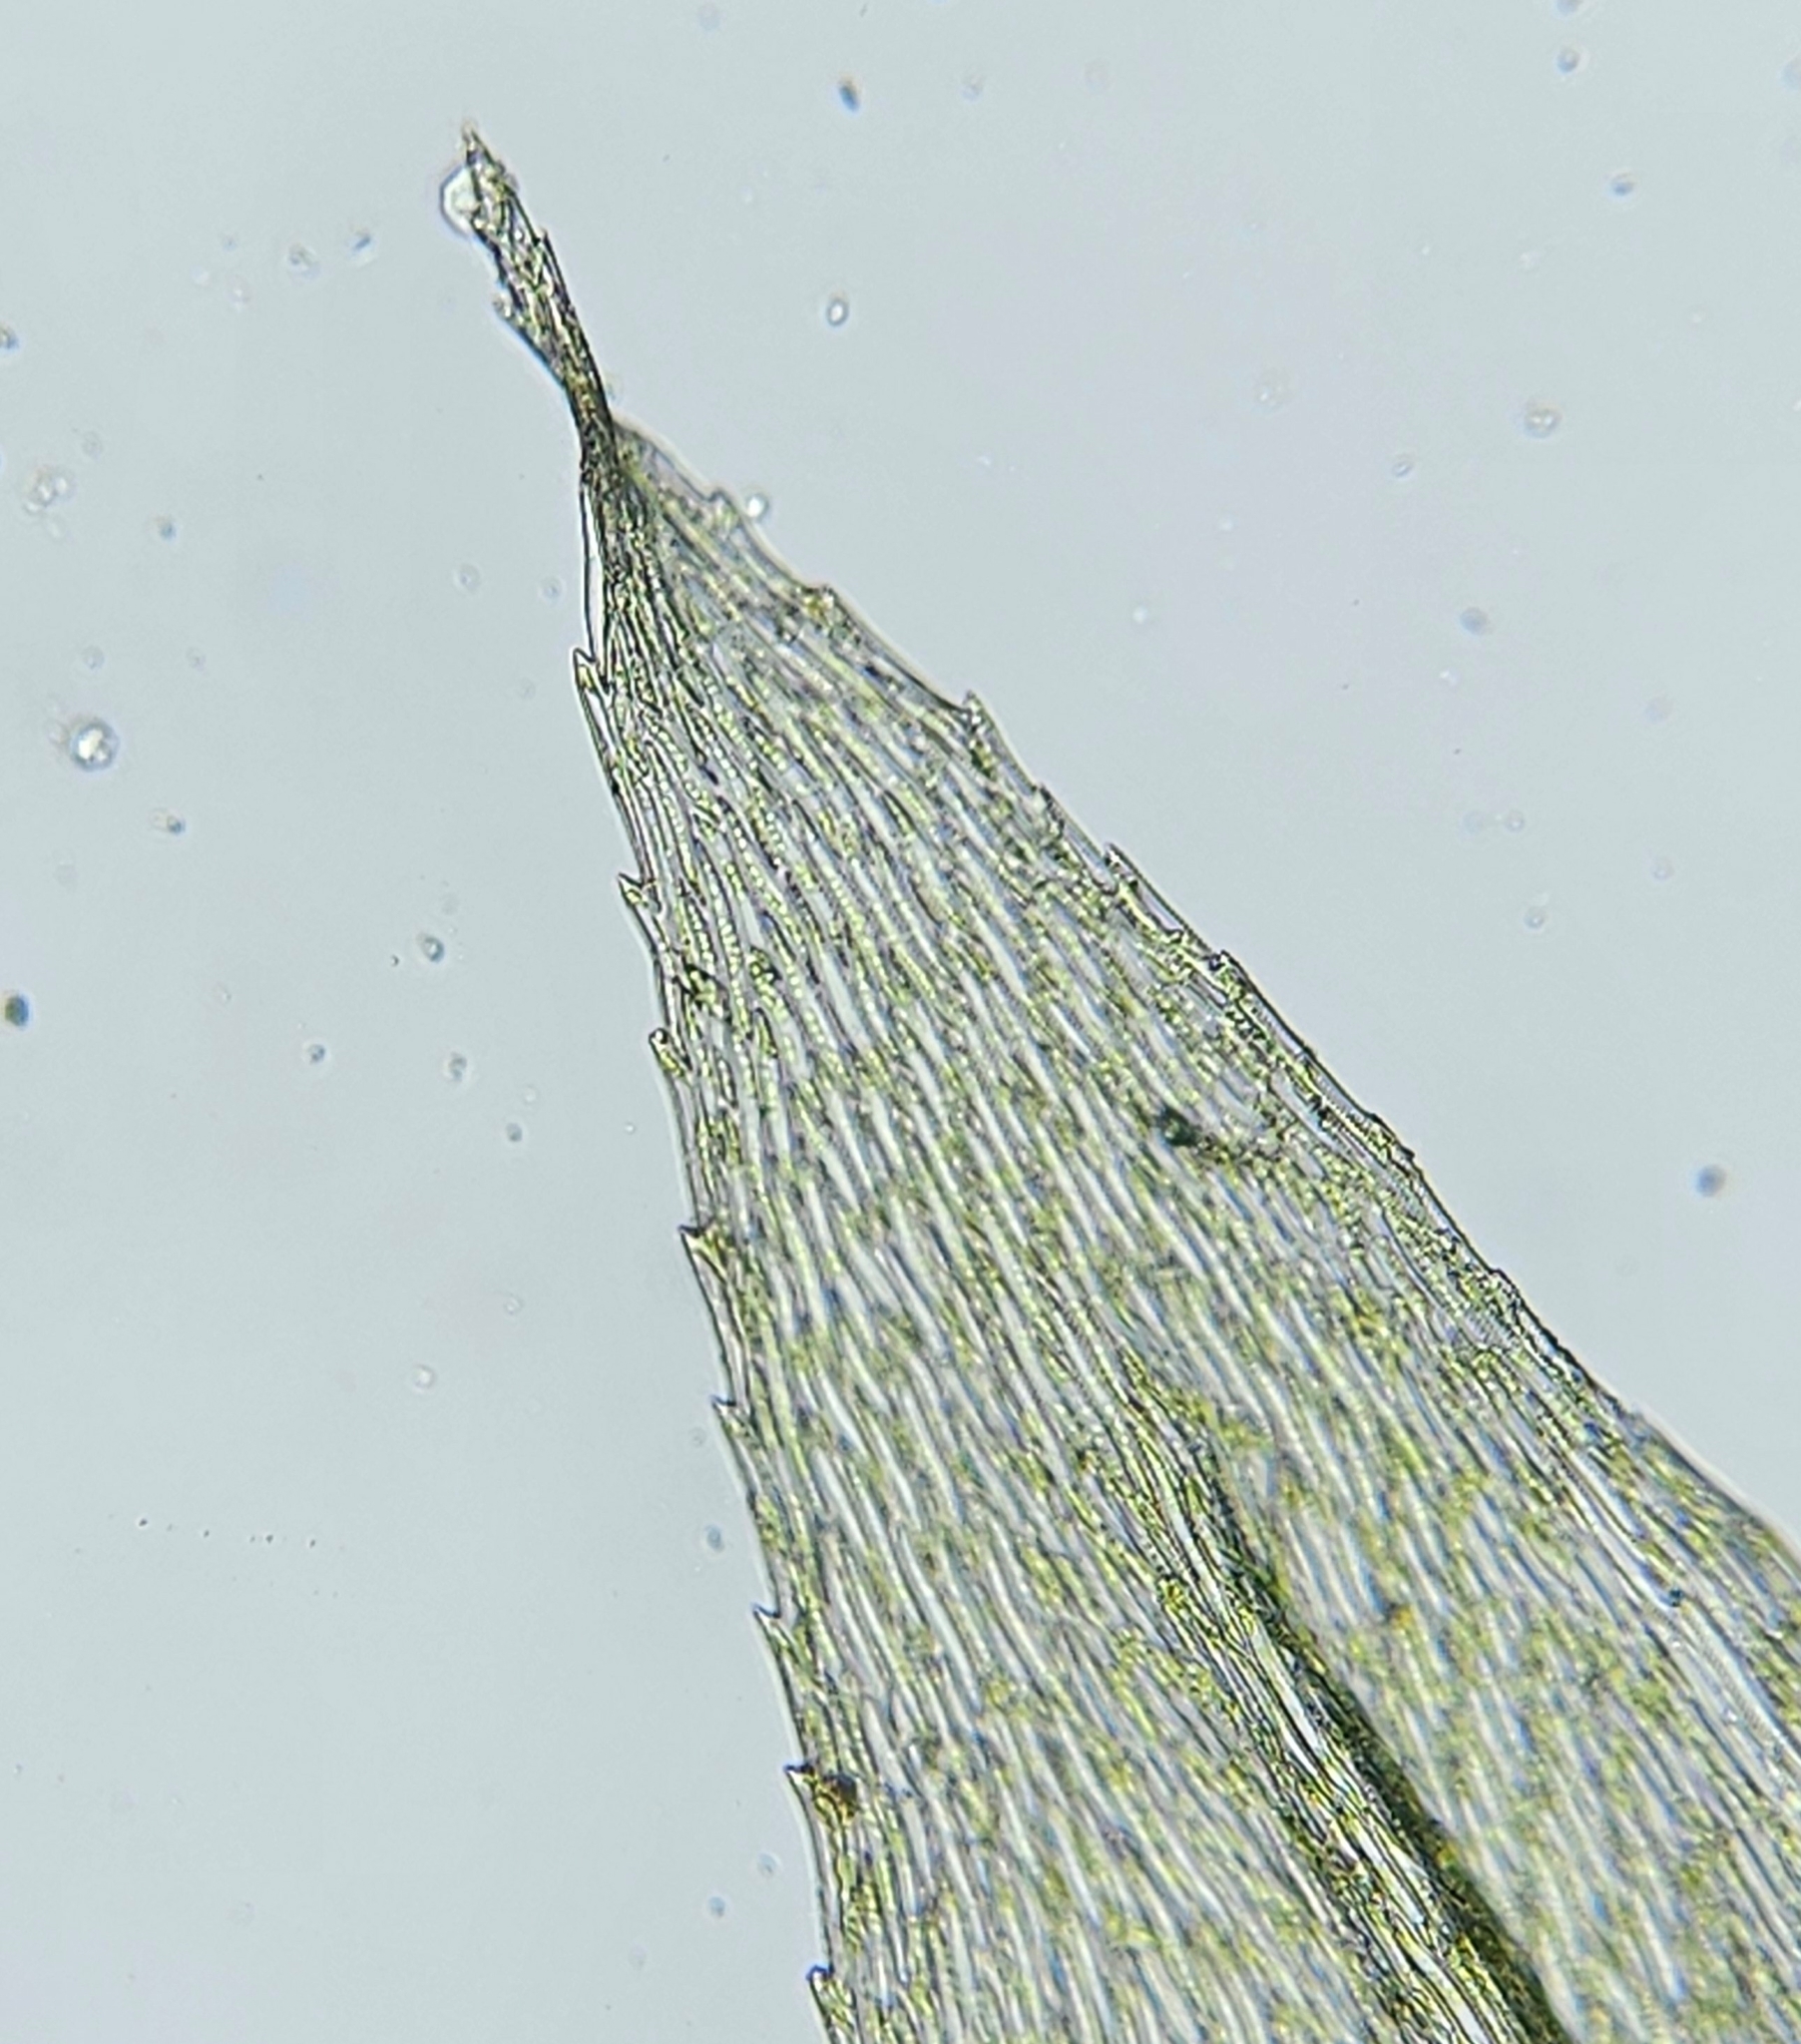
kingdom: Plantae
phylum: Bryophyta
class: Bryopsida
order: Hypnales
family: Brachytheciaceae
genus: Brachythecium
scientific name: Brachythecium rivulare
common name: River ragged moss
